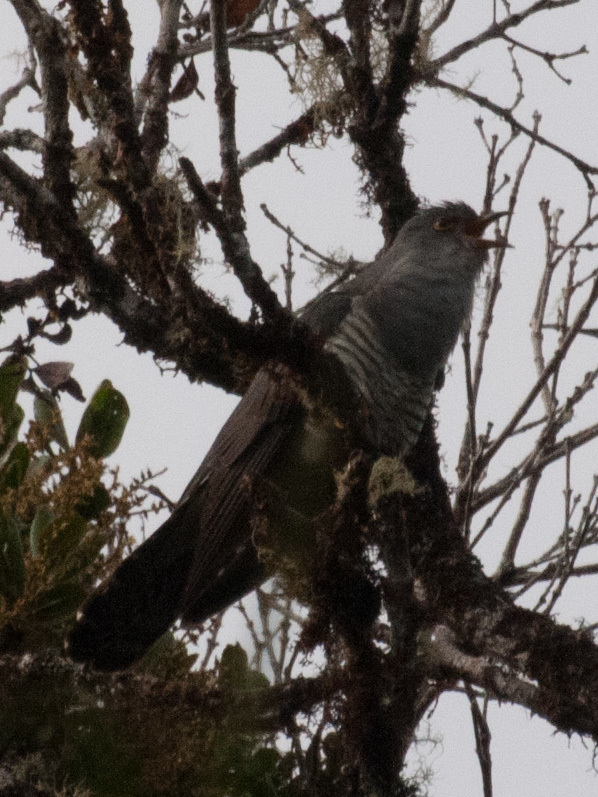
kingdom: Animalia
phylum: Chordata
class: Aves
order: Cuculiformes
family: Cuculidae
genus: Cuculus
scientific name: Cuculus rochii
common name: Madagascar cuckoo
